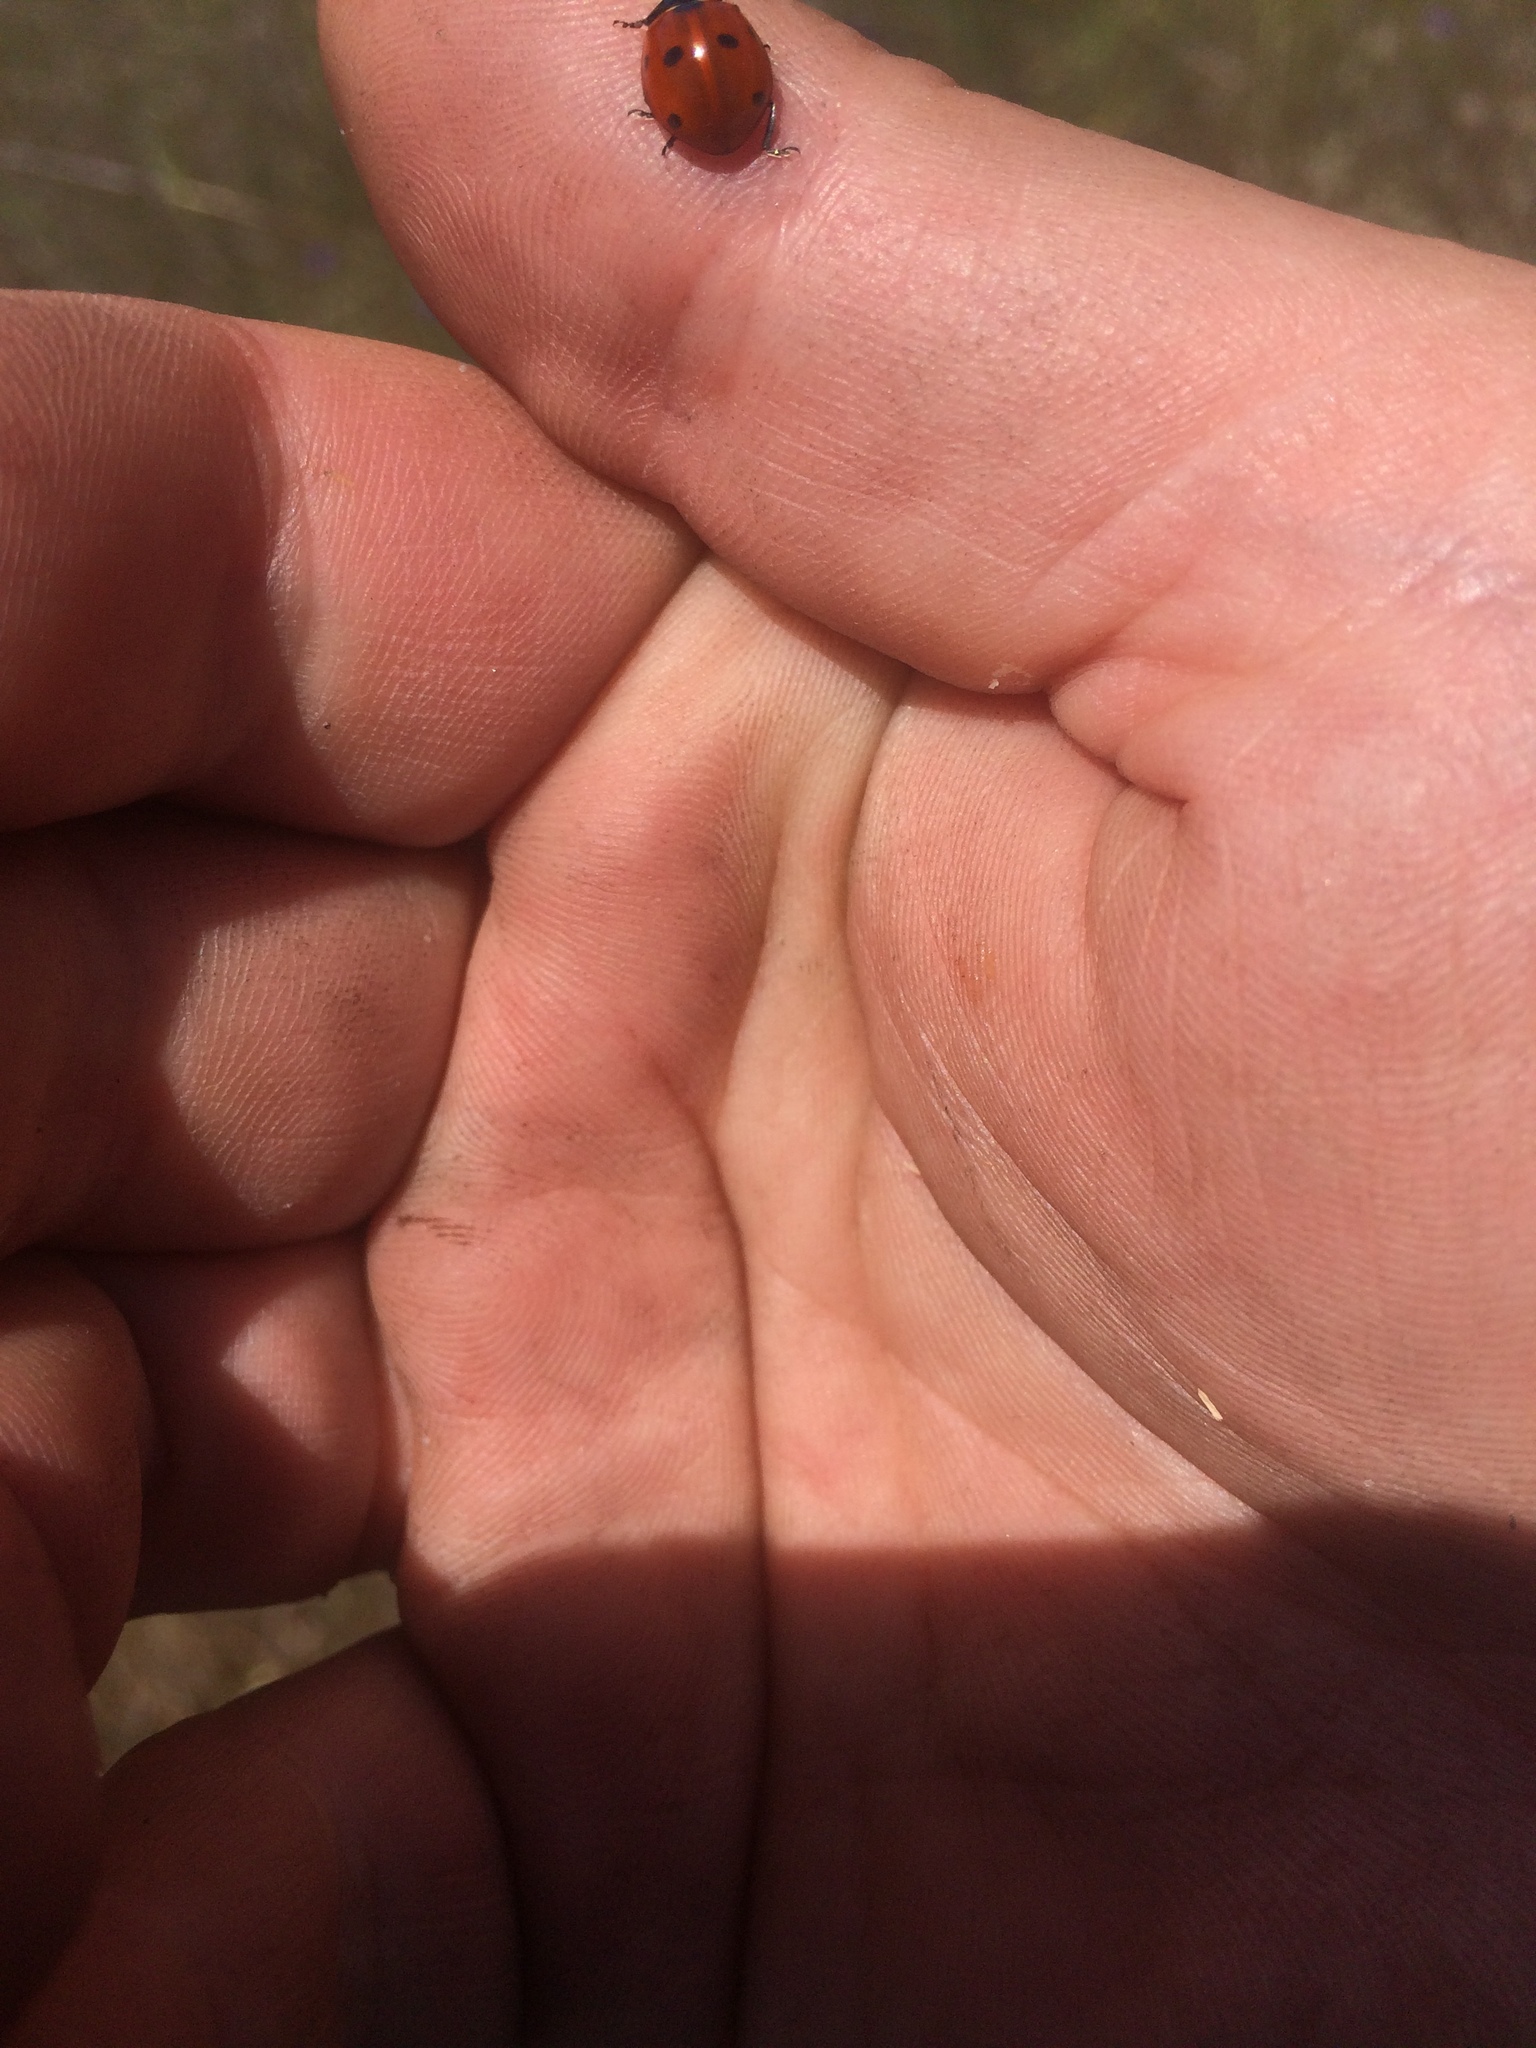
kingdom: Animalia
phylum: Arthropoda
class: Insecta
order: Coleoptera
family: Coccinellidae
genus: Coccinella
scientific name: Coccinella septempunctata
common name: Sevenspotted lady beetle
